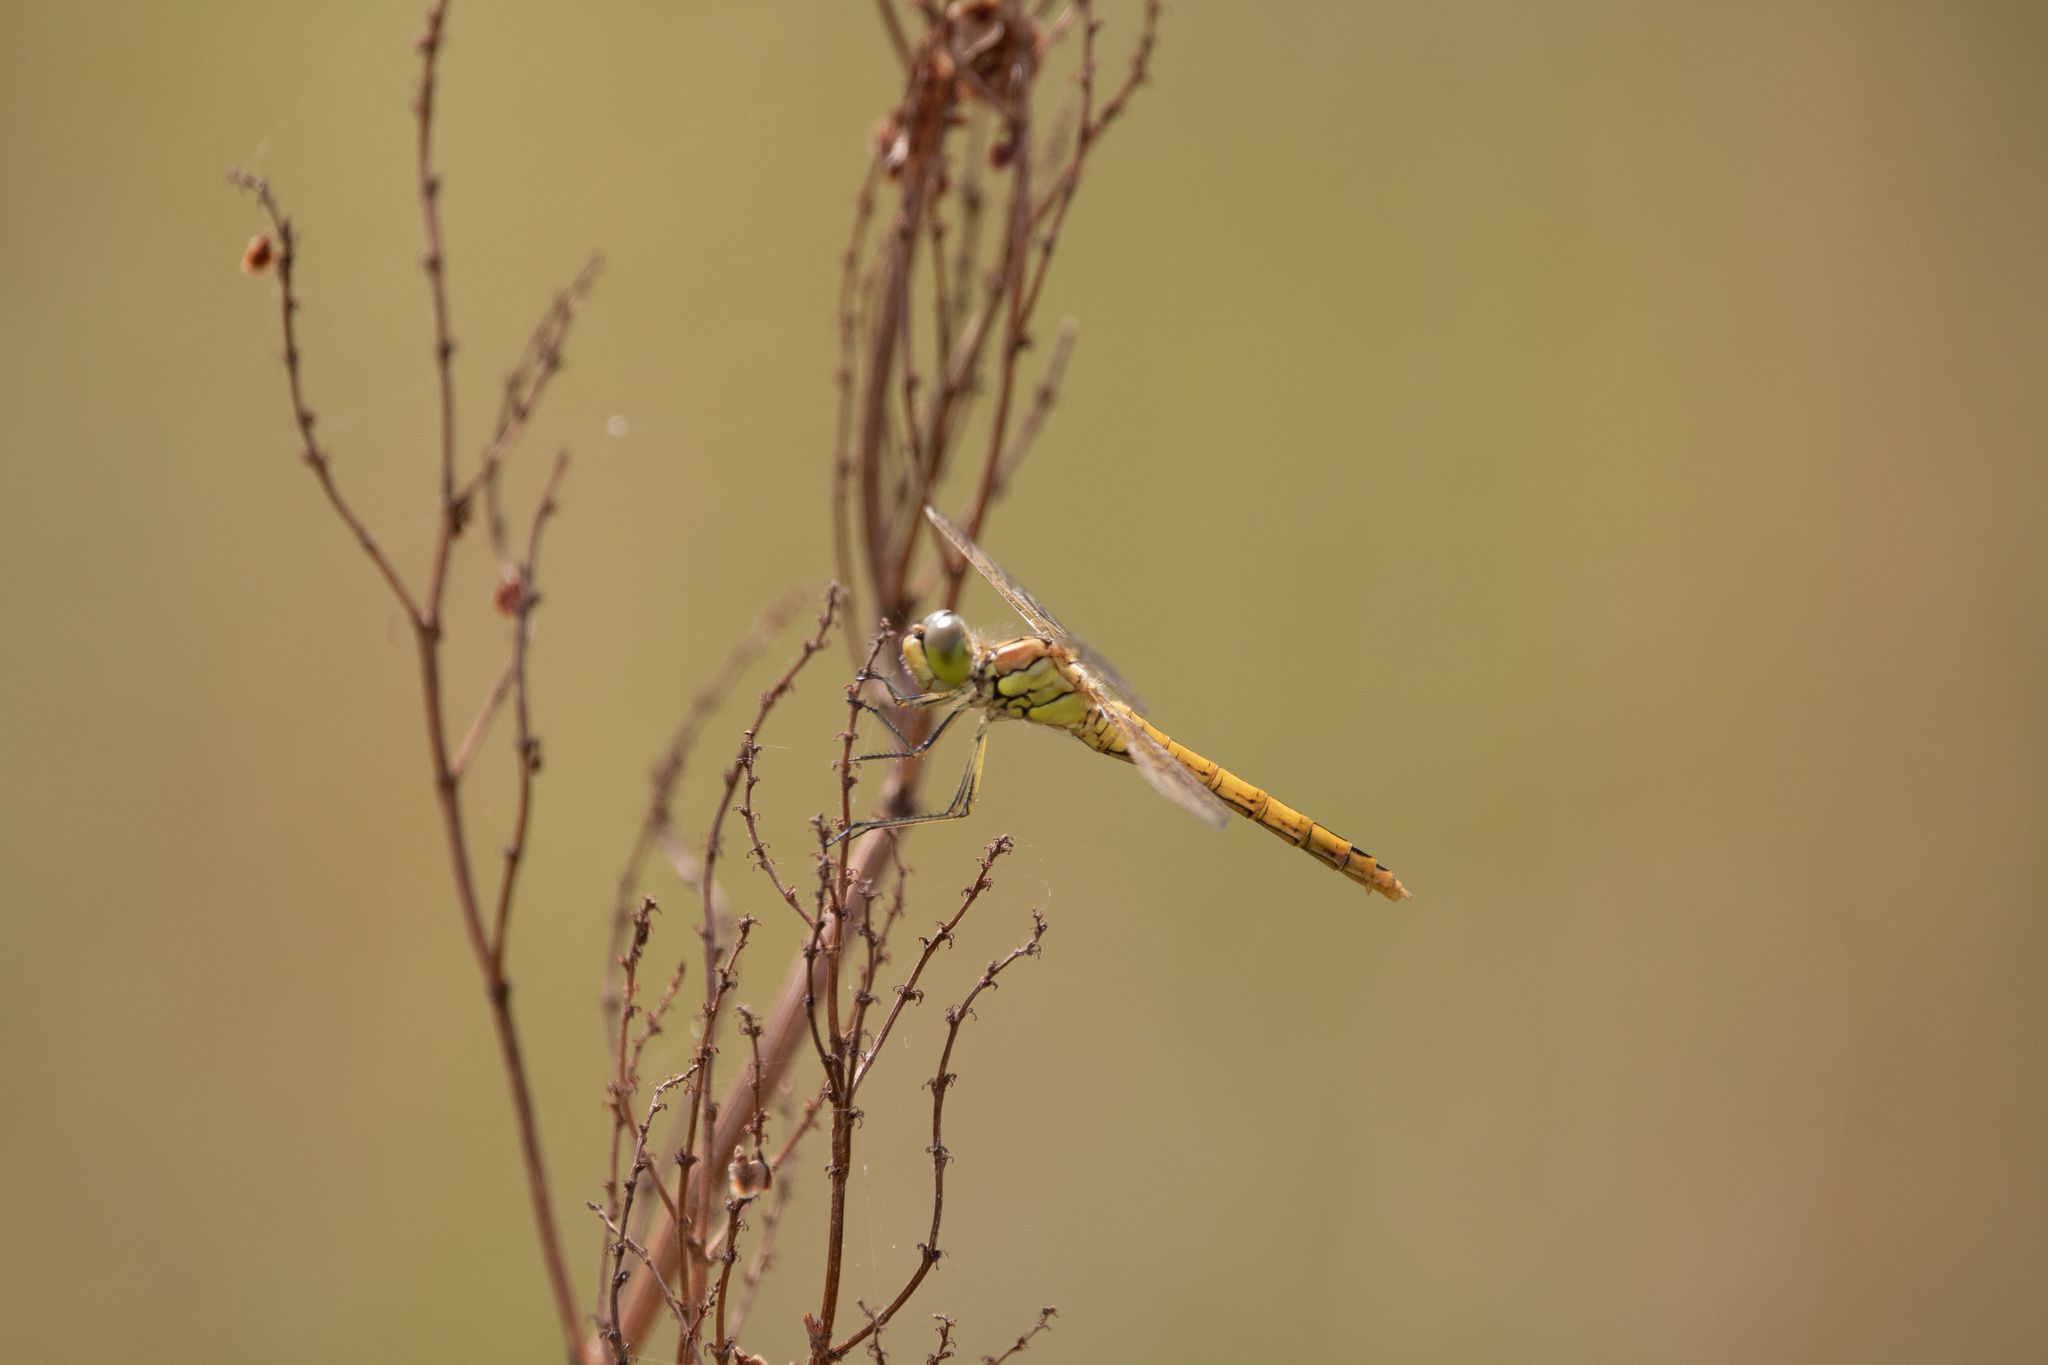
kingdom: Animalia
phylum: Arthropoda
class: Insecta
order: Odonata
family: Libellulidae
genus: Sympetrum
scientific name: Sympetrum vulgatum
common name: Vagrant darter
